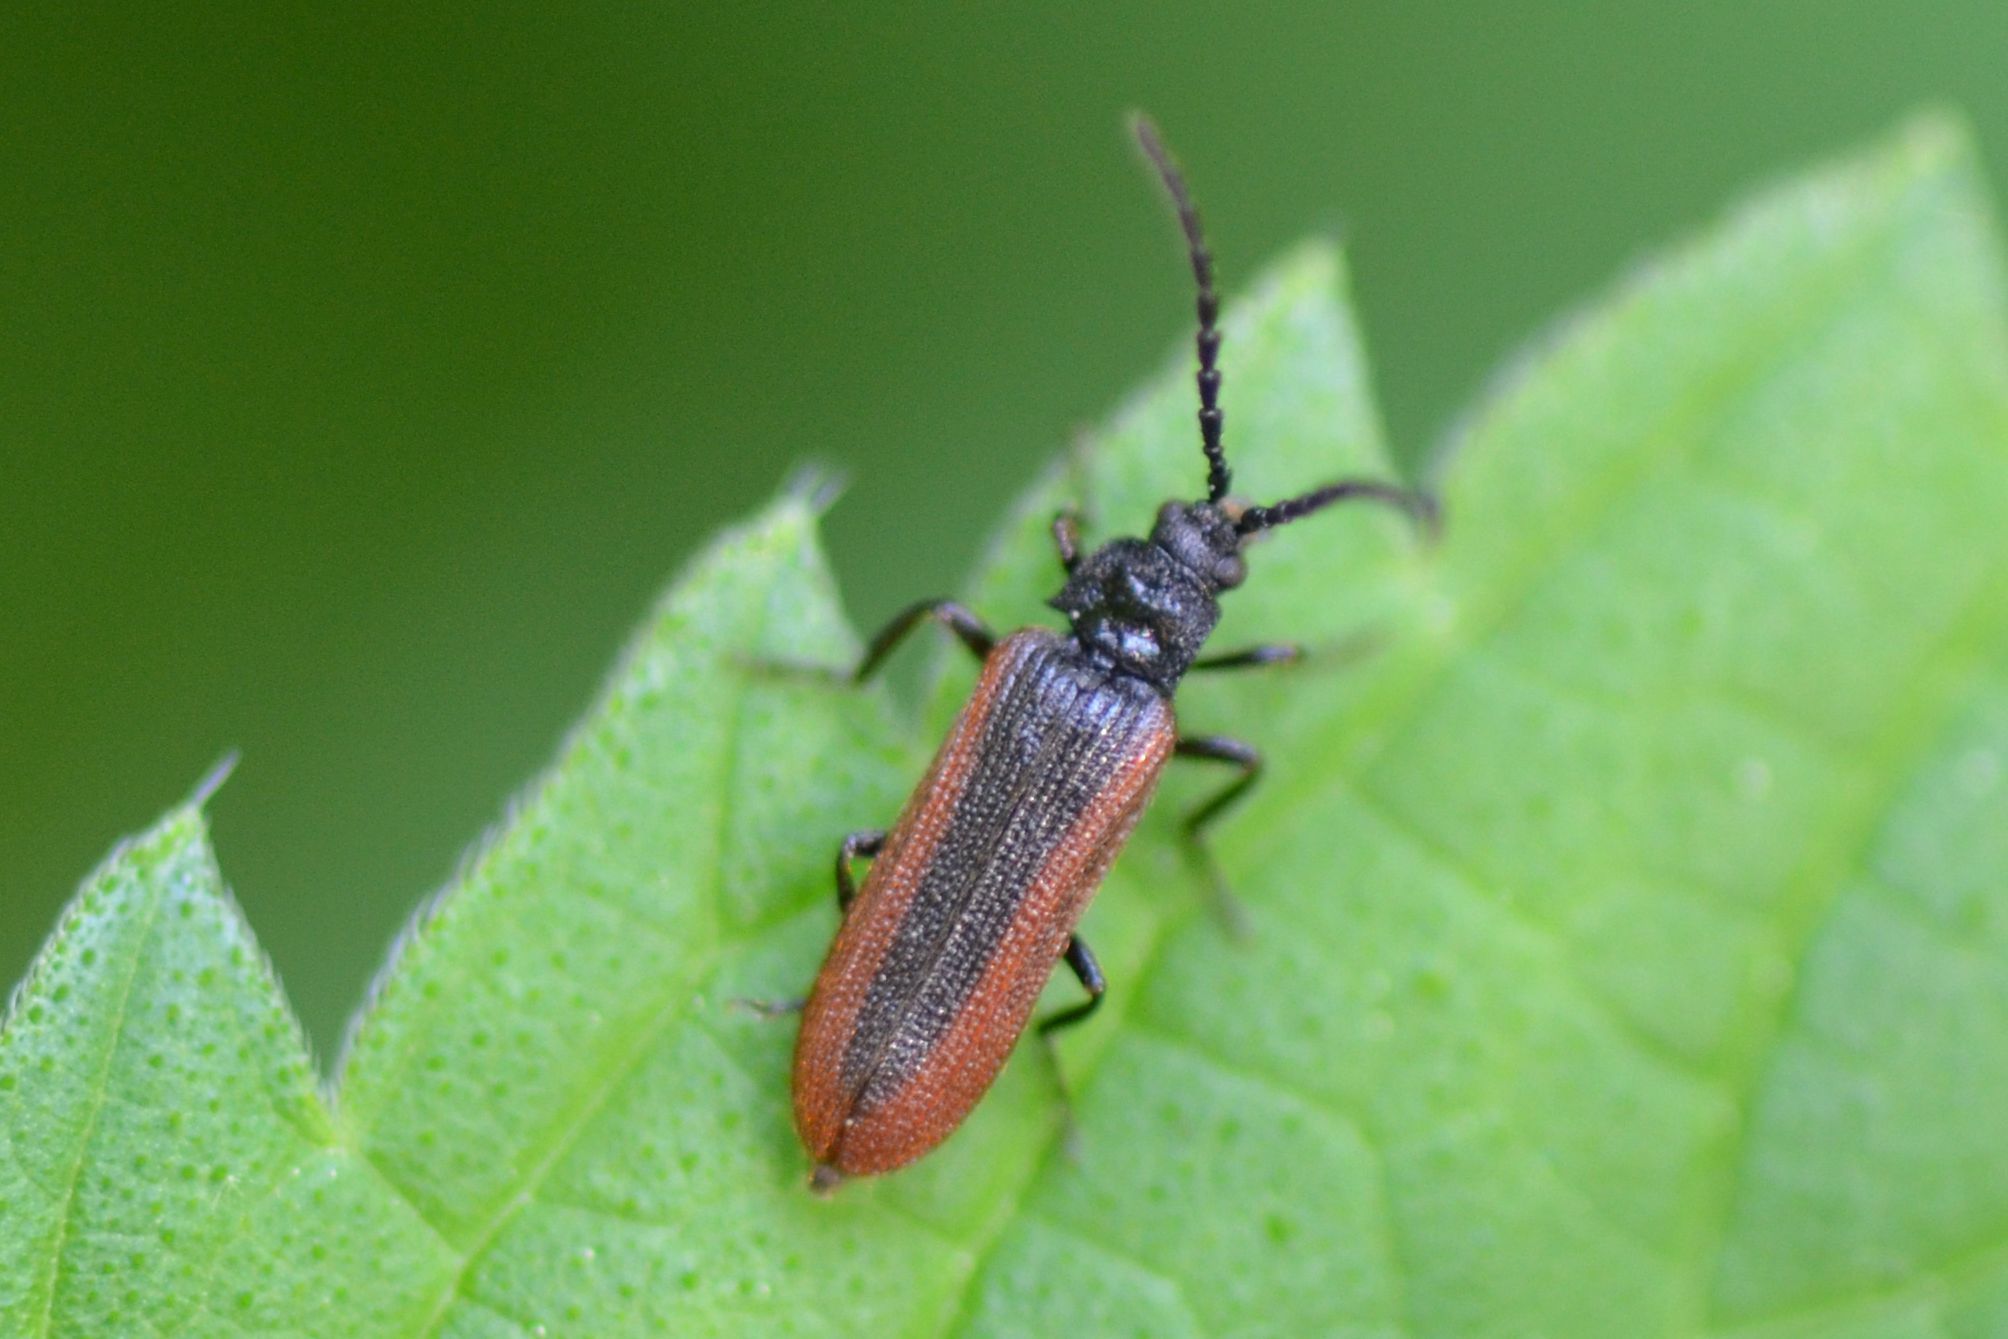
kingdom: Animalia
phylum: Arthropoda
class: Insecta
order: Coleoptera
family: Omalisidae
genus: Omalisus
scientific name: Omalisus fontisbellaquei
